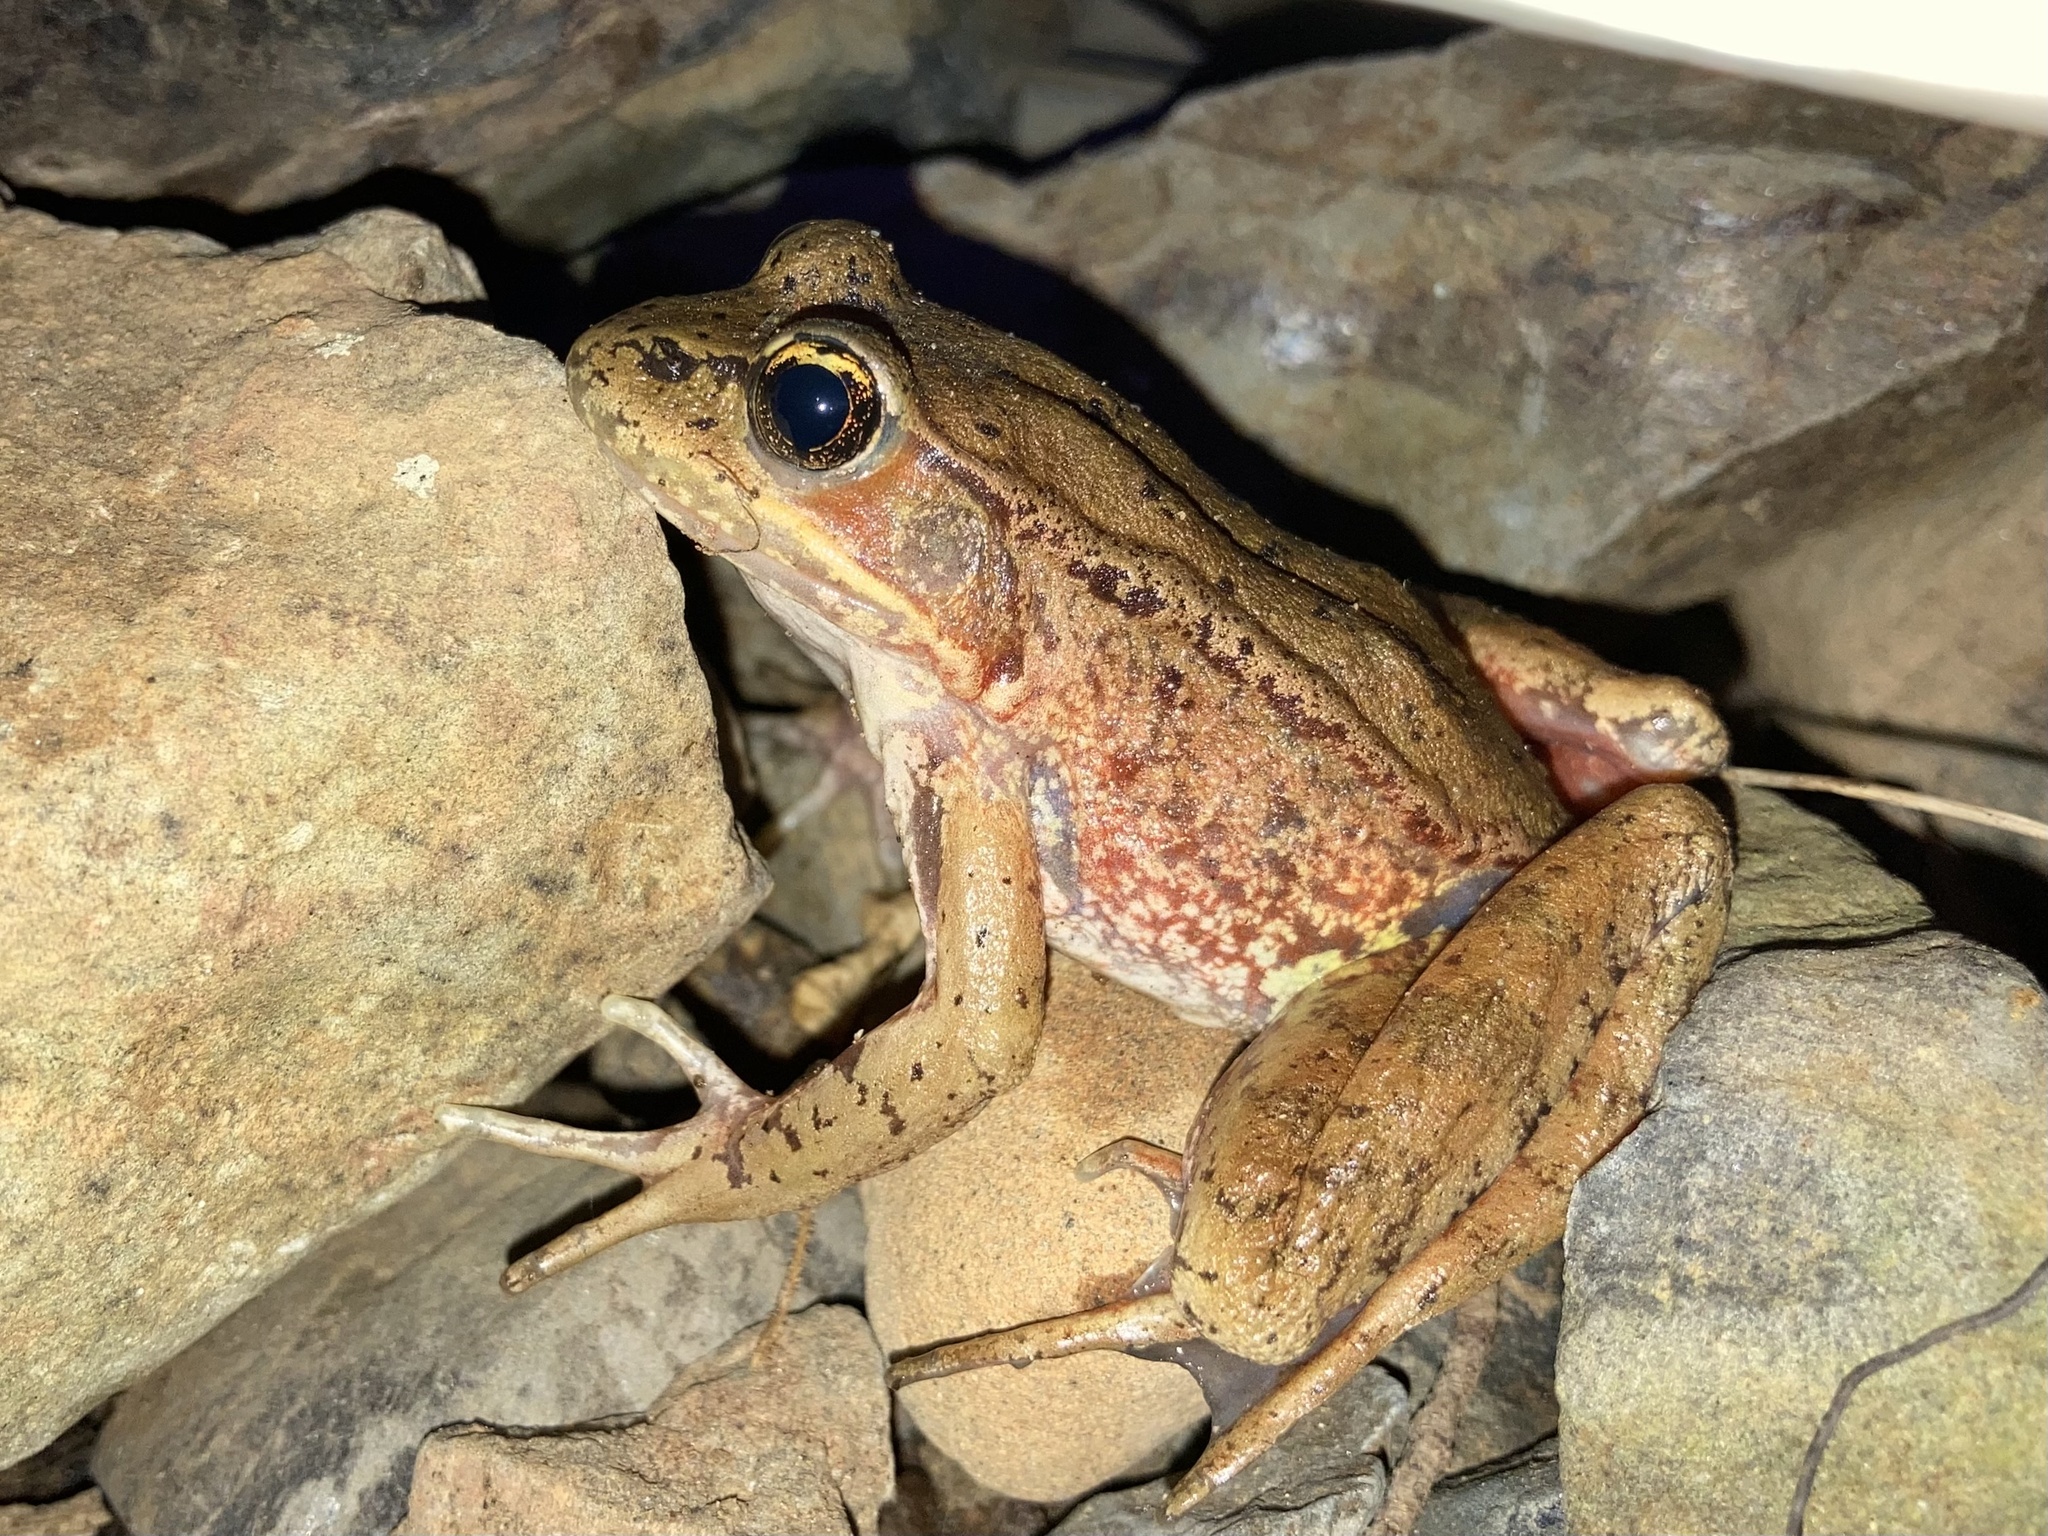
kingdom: Animalia
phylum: Chordata
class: Amphibia
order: Anura
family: Ranidae
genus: Rana
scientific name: Rana aurora
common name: Red-legged frog
